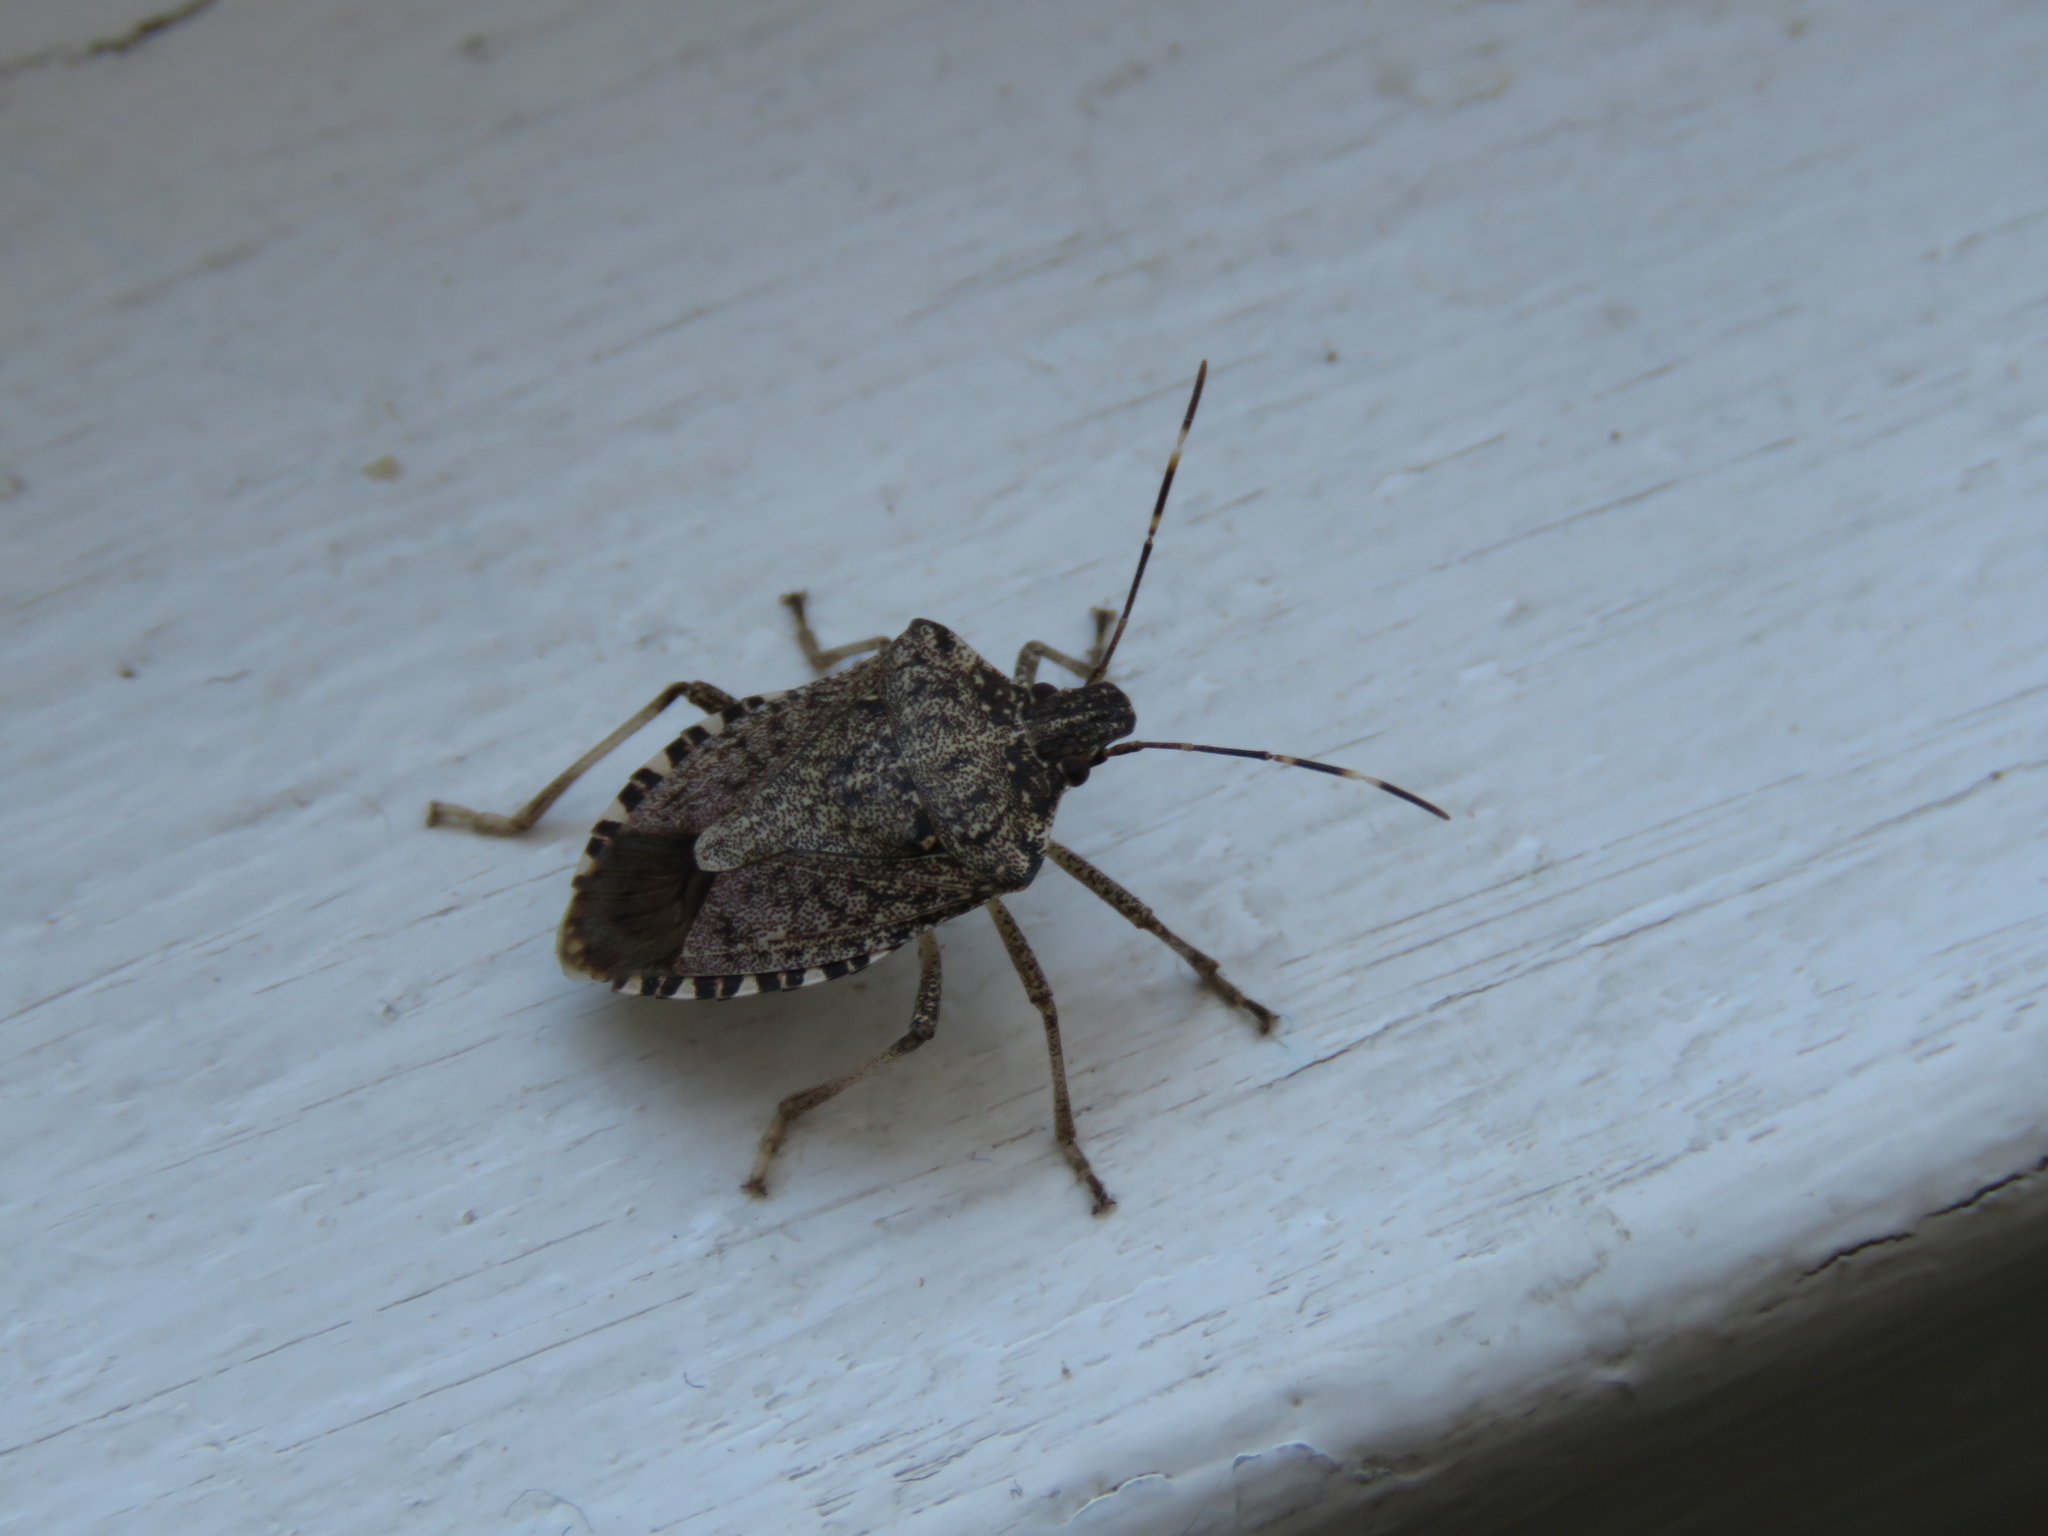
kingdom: Animalia
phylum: Arthropoda
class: Insecta
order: Hemiptera
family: Pentatomidae
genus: Halyomorpha
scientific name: Halyomorpha halys
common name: Brown marmorated stink bug
